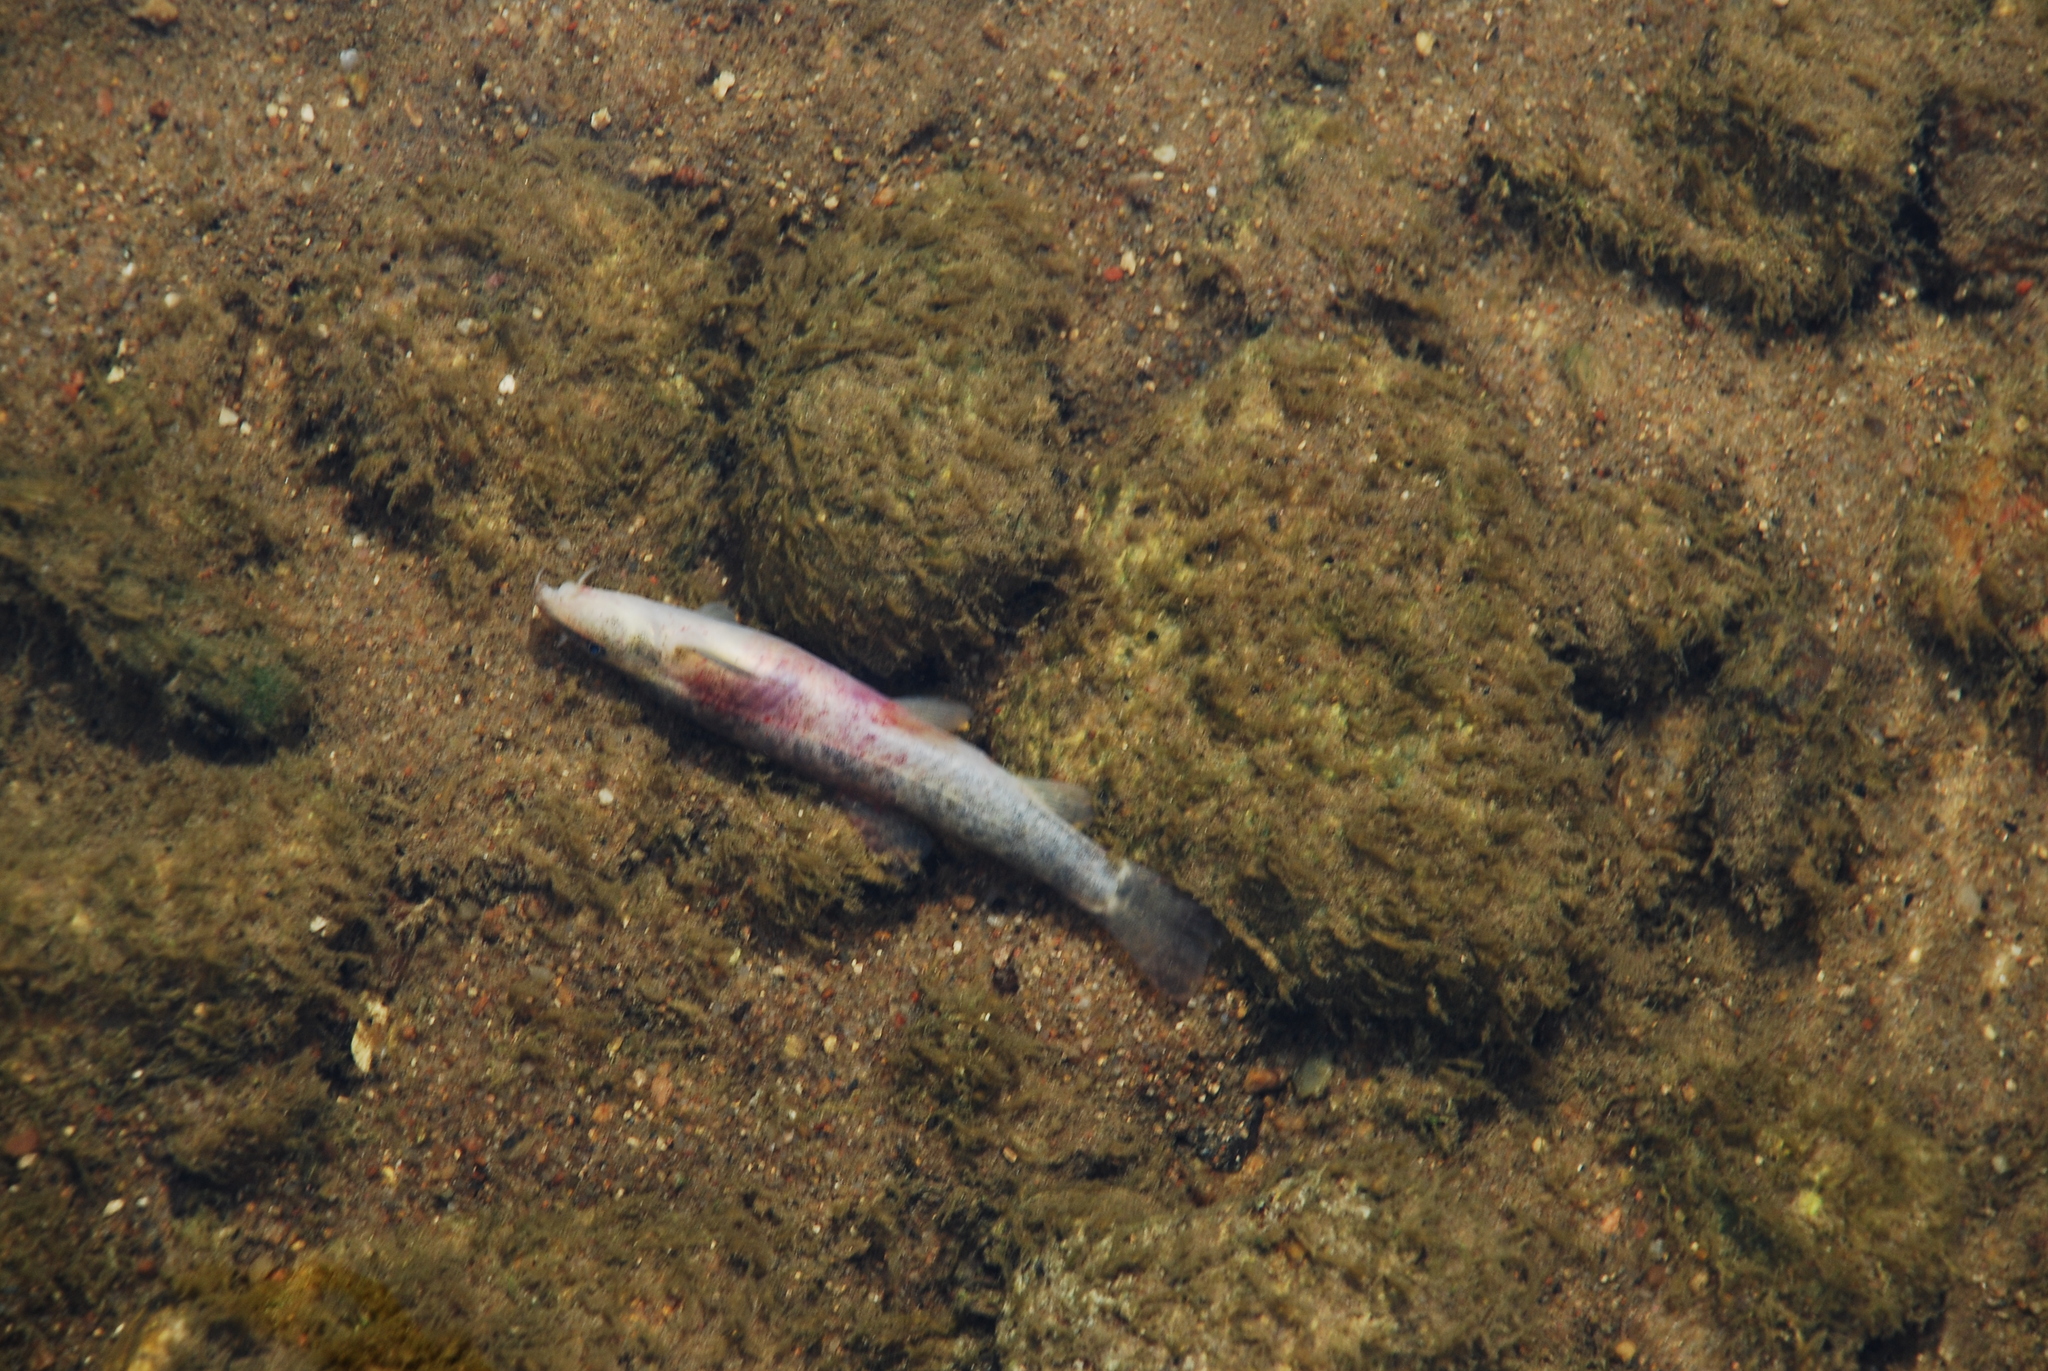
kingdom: Animalia
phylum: Chordata
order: Cypriniformes
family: Nemacheilidae
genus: Barbatula
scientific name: Barbatula barbatula
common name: Stone loach
